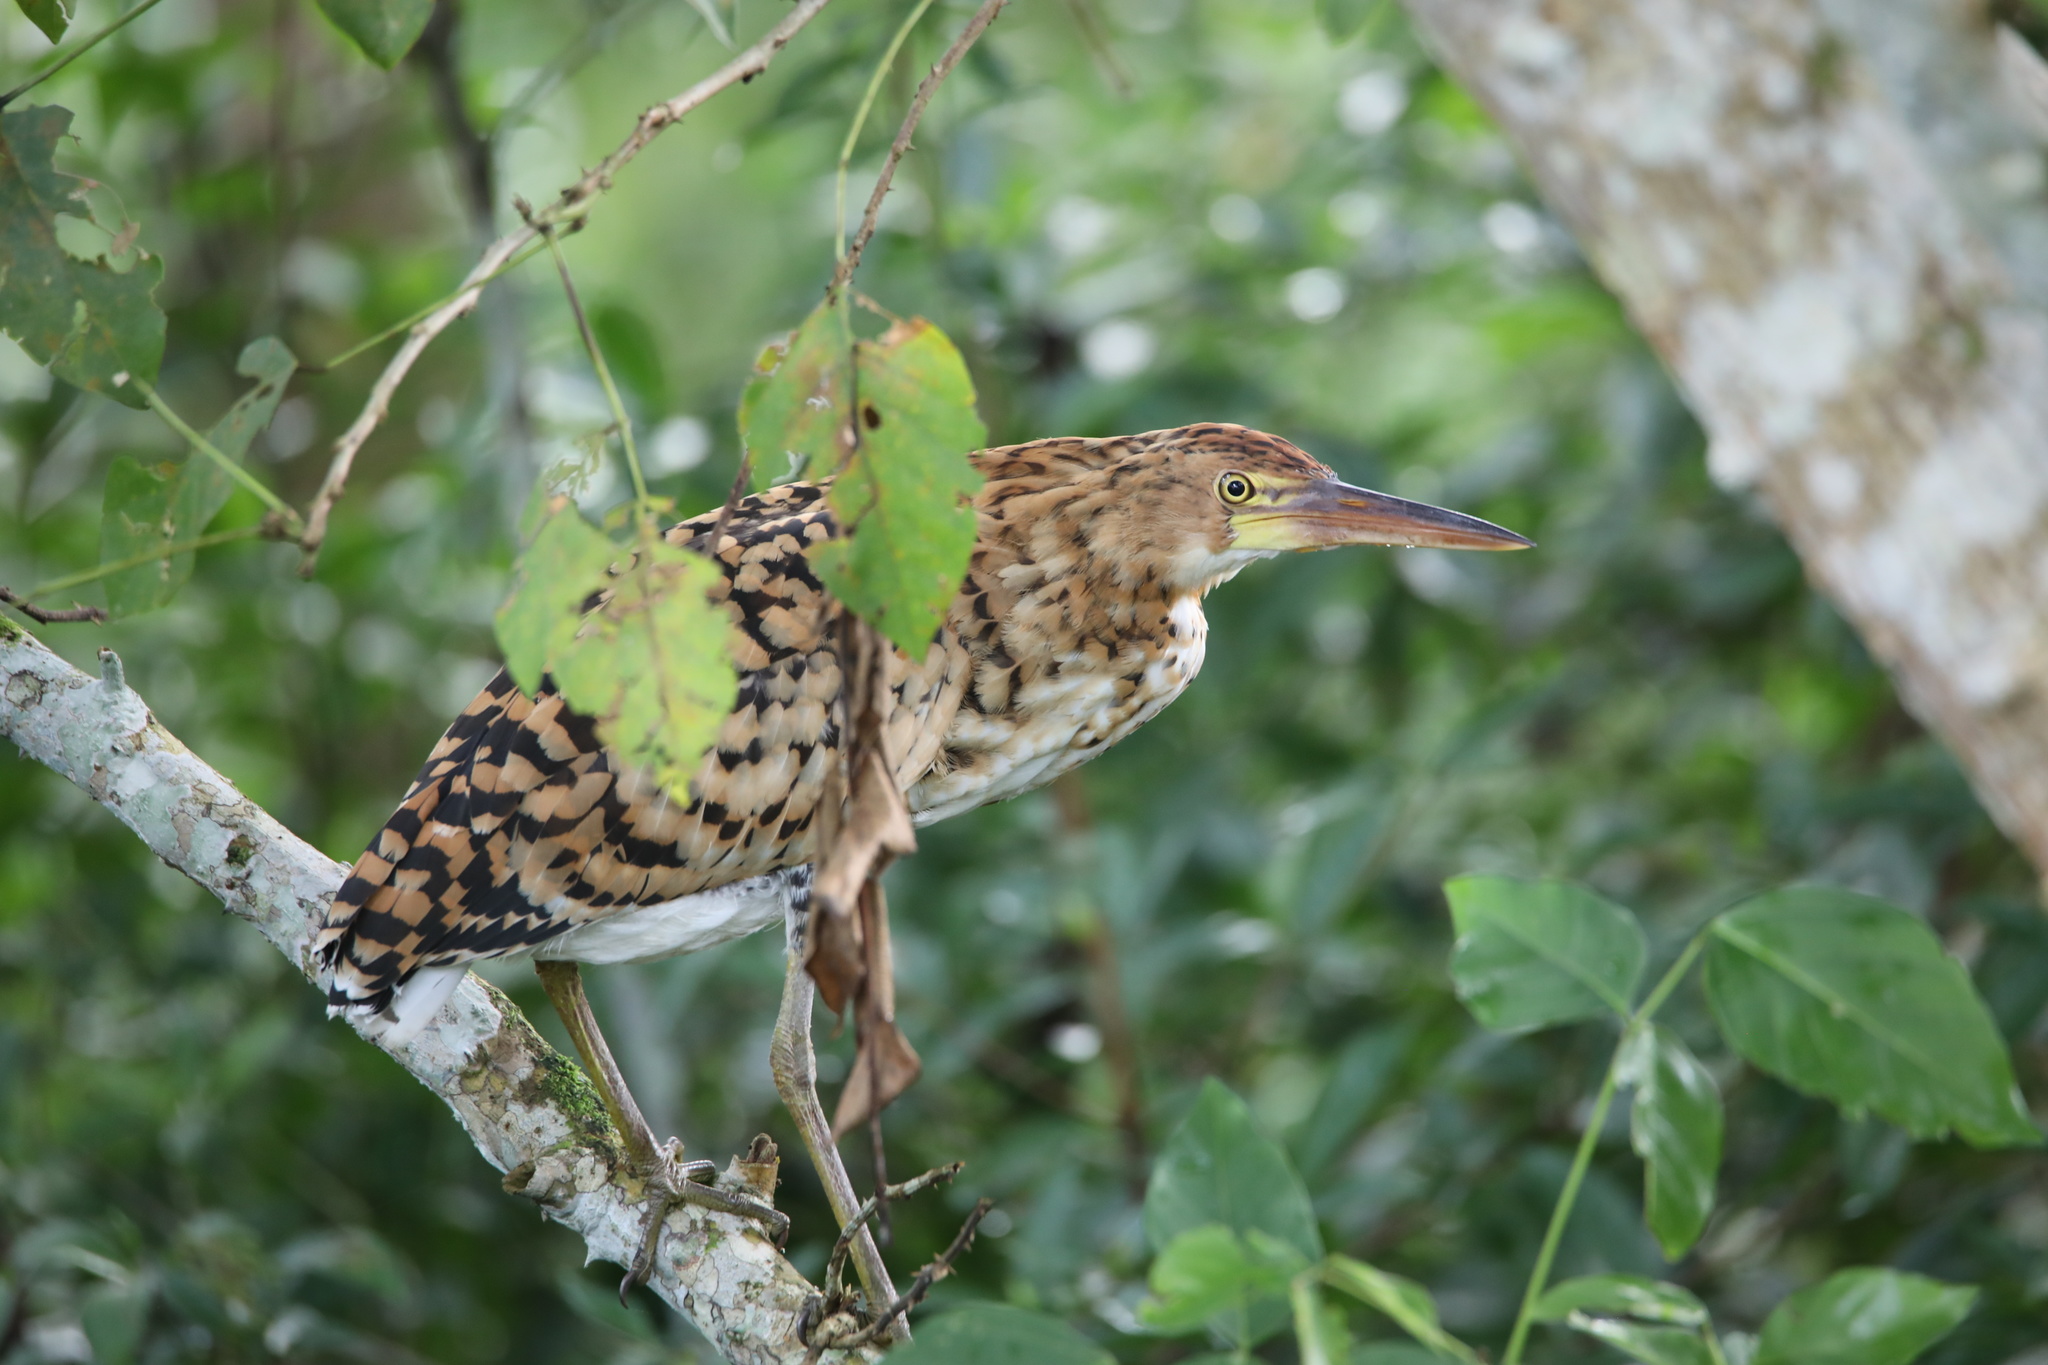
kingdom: Animalia
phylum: Chordata
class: Aves
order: Pelecaniformes
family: Ardeidae
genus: Tigrisoma
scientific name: Tigrisoma lineatum
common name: Rufescent tiger-heron
